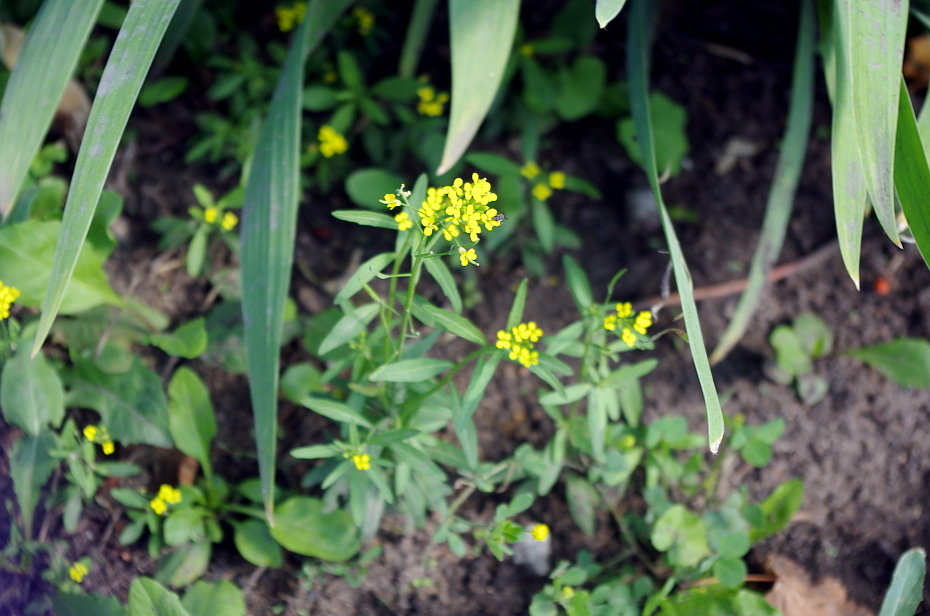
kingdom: Plantae
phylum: Tracheophyta
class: Magnoliopsida
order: Brassicales
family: Brassicaceae
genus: Erysimum
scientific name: Erysimum cheiranthoides
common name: Treacle mustard
